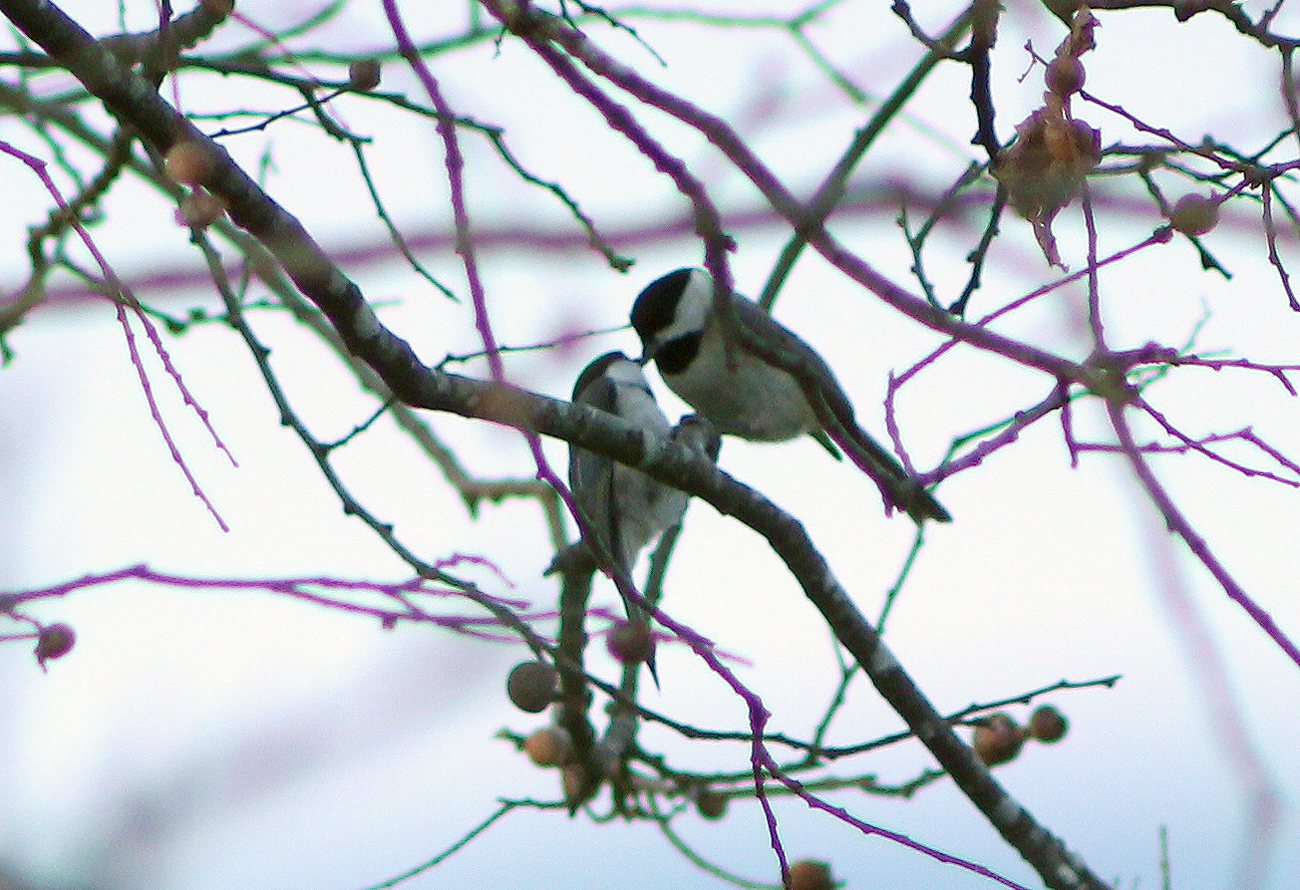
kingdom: Animalia
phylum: Chordata
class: Aves
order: Passeriformes
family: Paridae
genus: Poecile
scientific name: Poecile carolinensis
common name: Carolina chickadee
